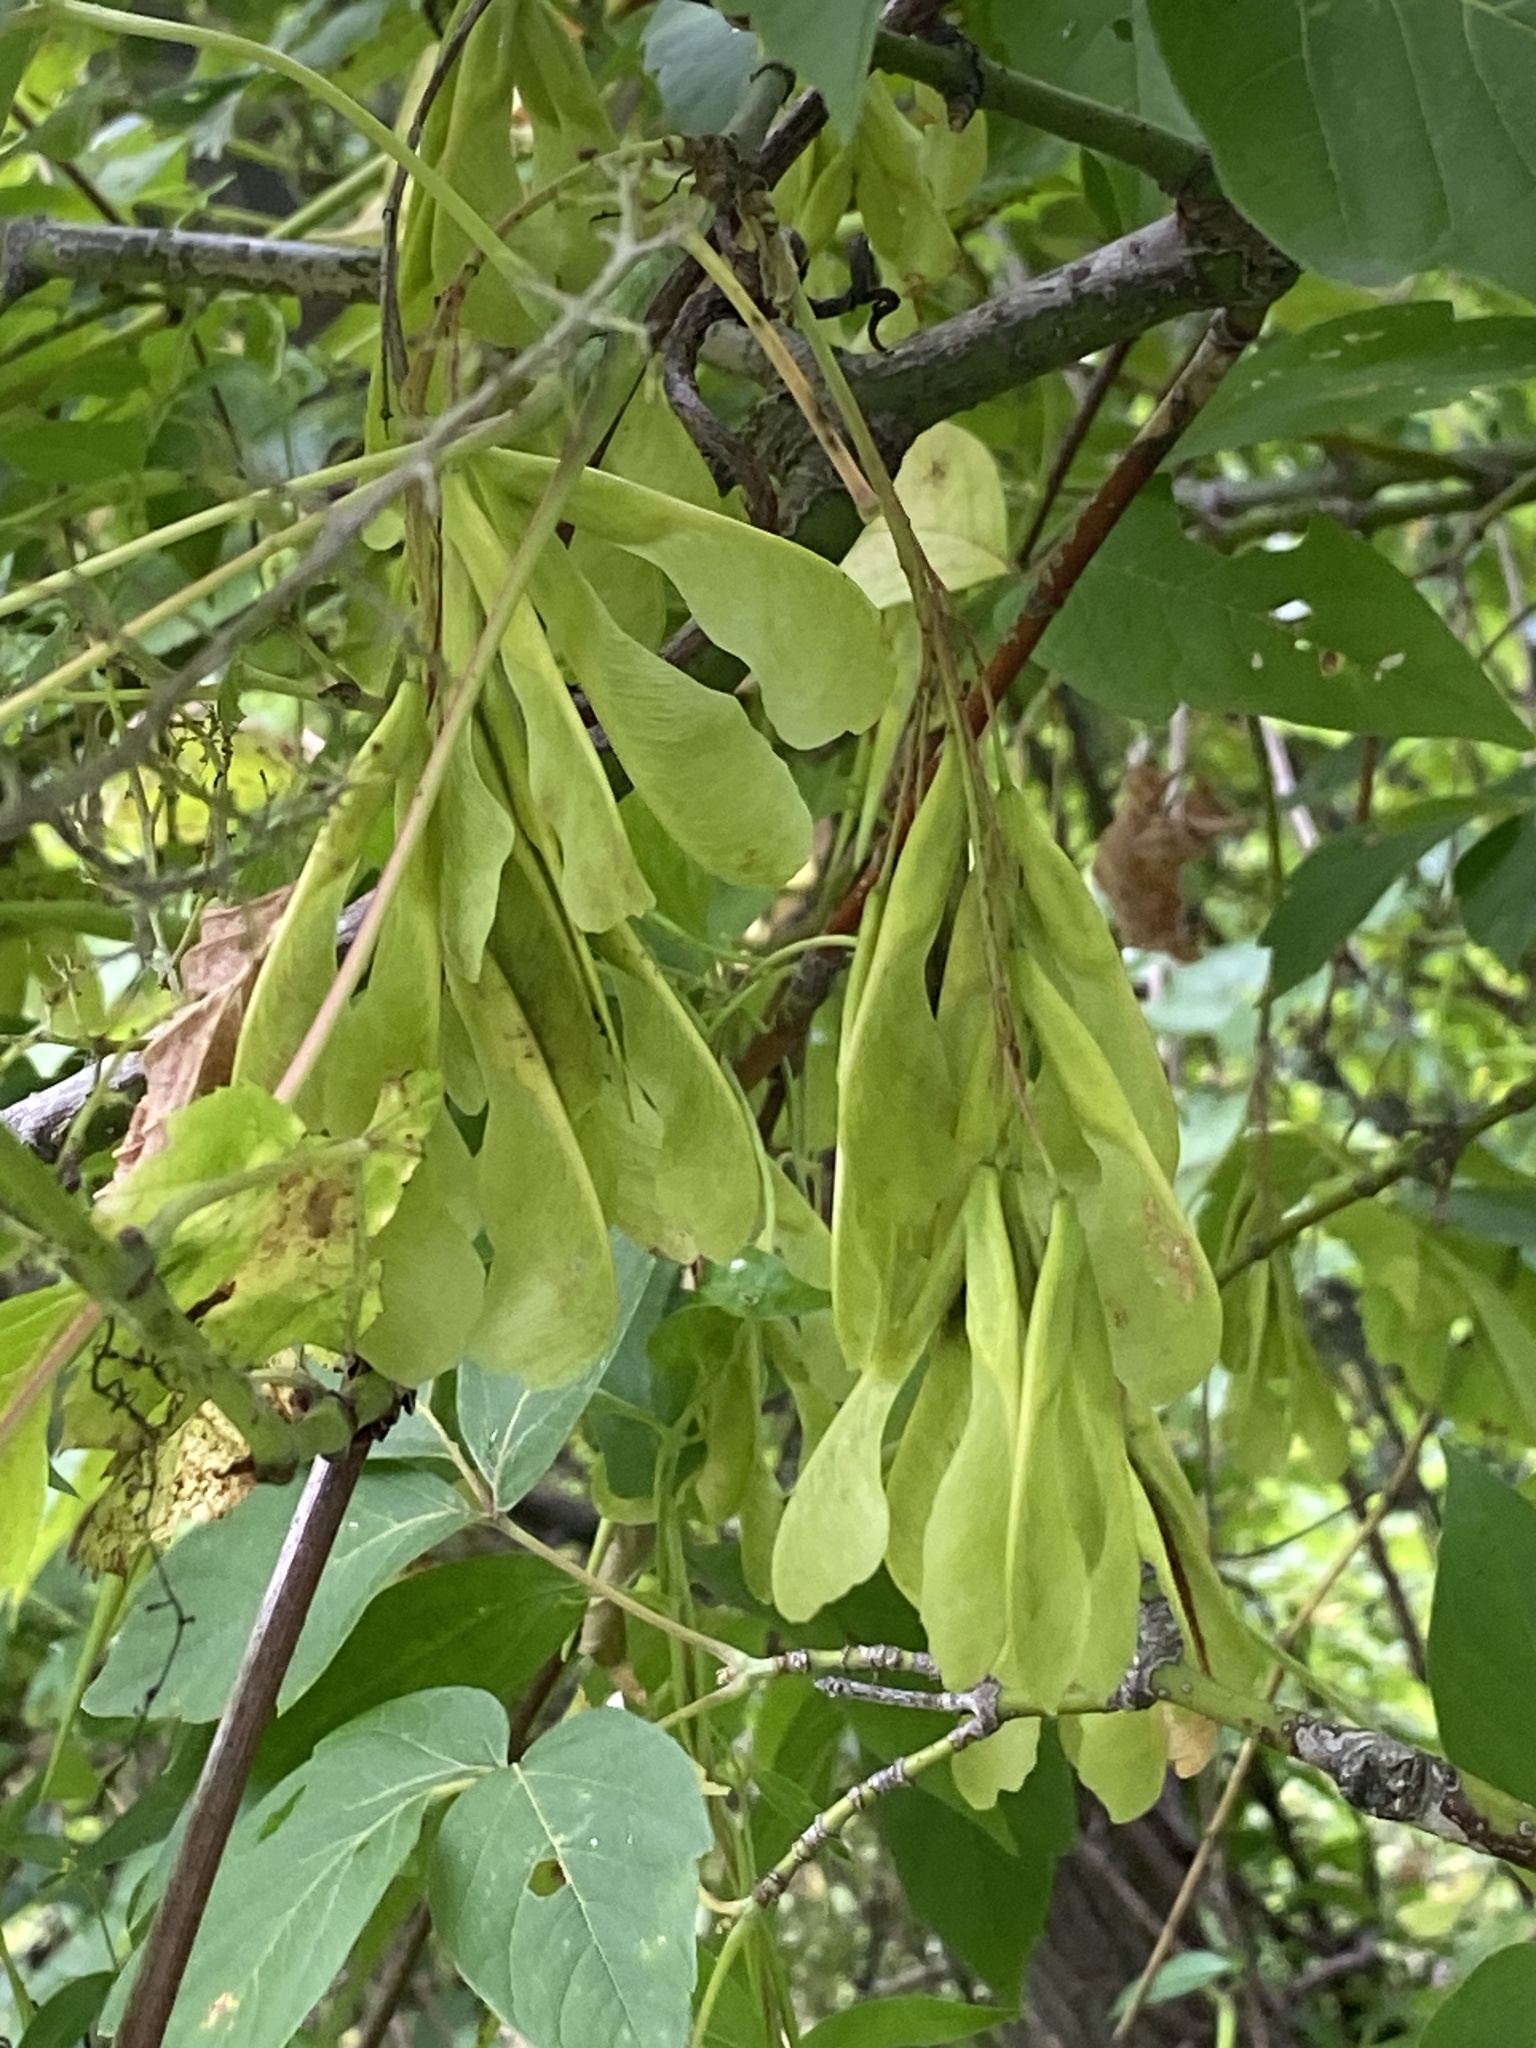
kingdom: Plantae
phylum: Tracheophyta
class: Magnoliopsida
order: Sapindales
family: Sapindaceae
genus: Acer
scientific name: Acer negundo
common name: Ashleaf maple
